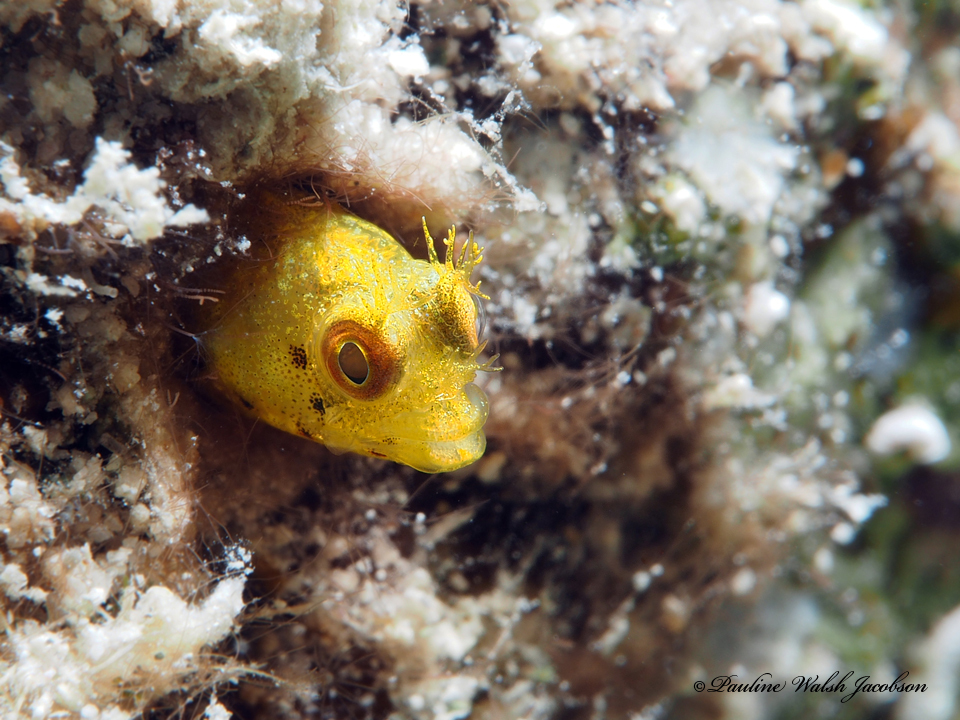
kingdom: Animalia
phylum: Chordata
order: Perciformes
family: Chaenopsidae
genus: Acanthemblemaria
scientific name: Acanthemblemaria aspera
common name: Roughhead blenny
